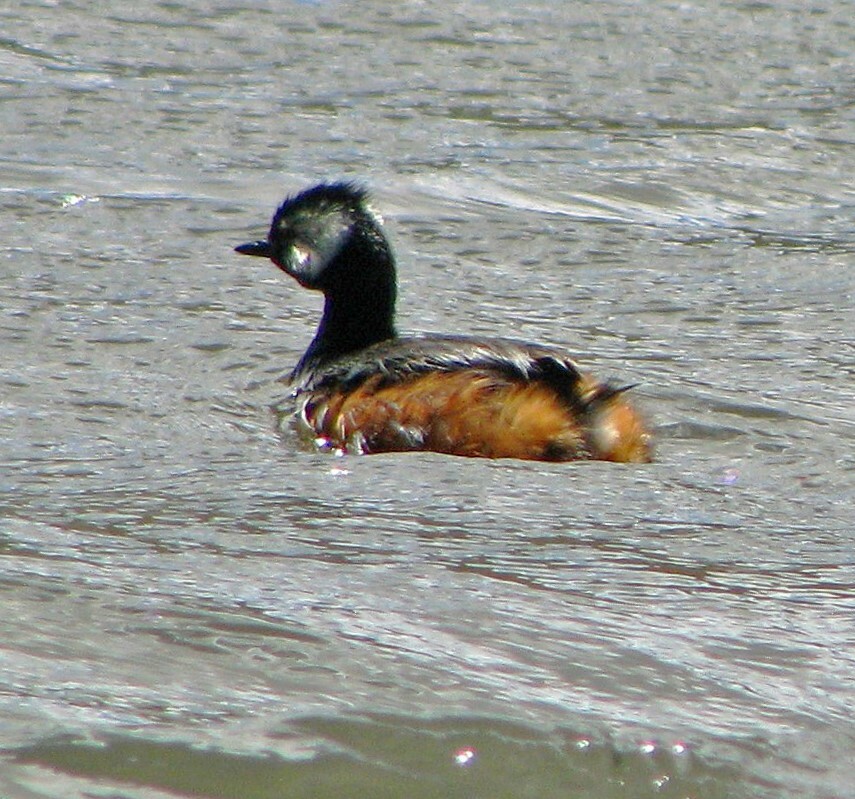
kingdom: Animalia
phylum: Chordata
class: Aves
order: Podicipediformes
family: Podicipedidae
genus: Rollandia
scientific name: Rollandia rolland
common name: White-tufted grebe
